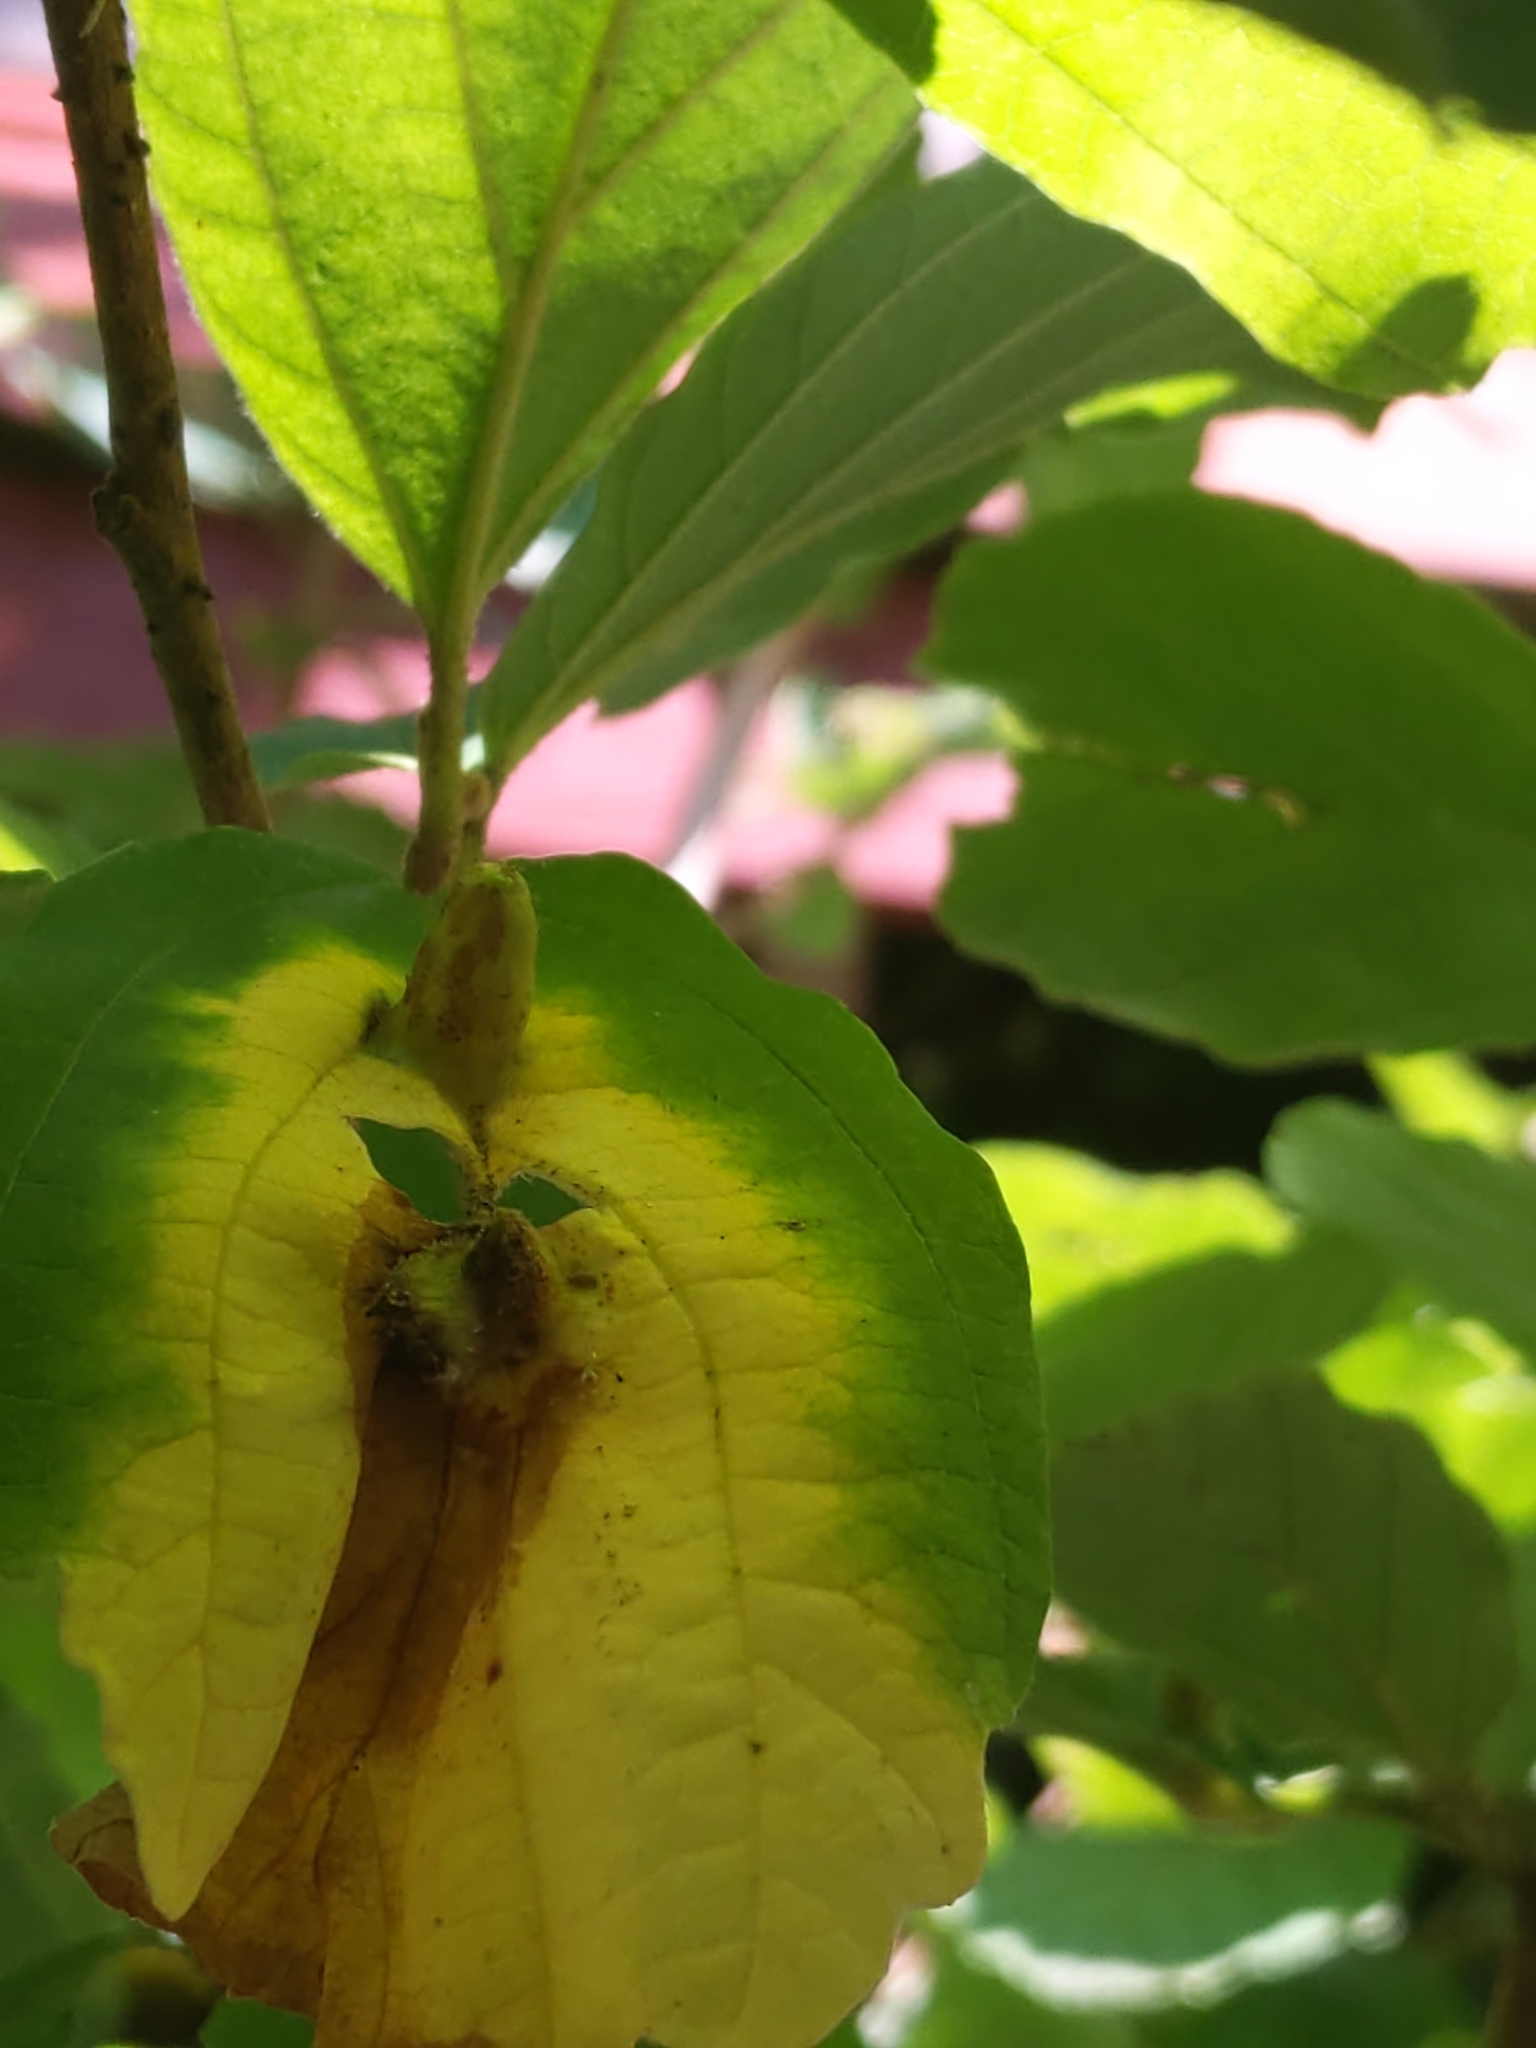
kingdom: Animalia
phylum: Arthropoda
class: Insecta
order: Hemiptera
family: Aphididae
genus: Hormaphis
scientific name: Hormaphis hamamelidis
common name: Witch-hazel cone gall aphid
